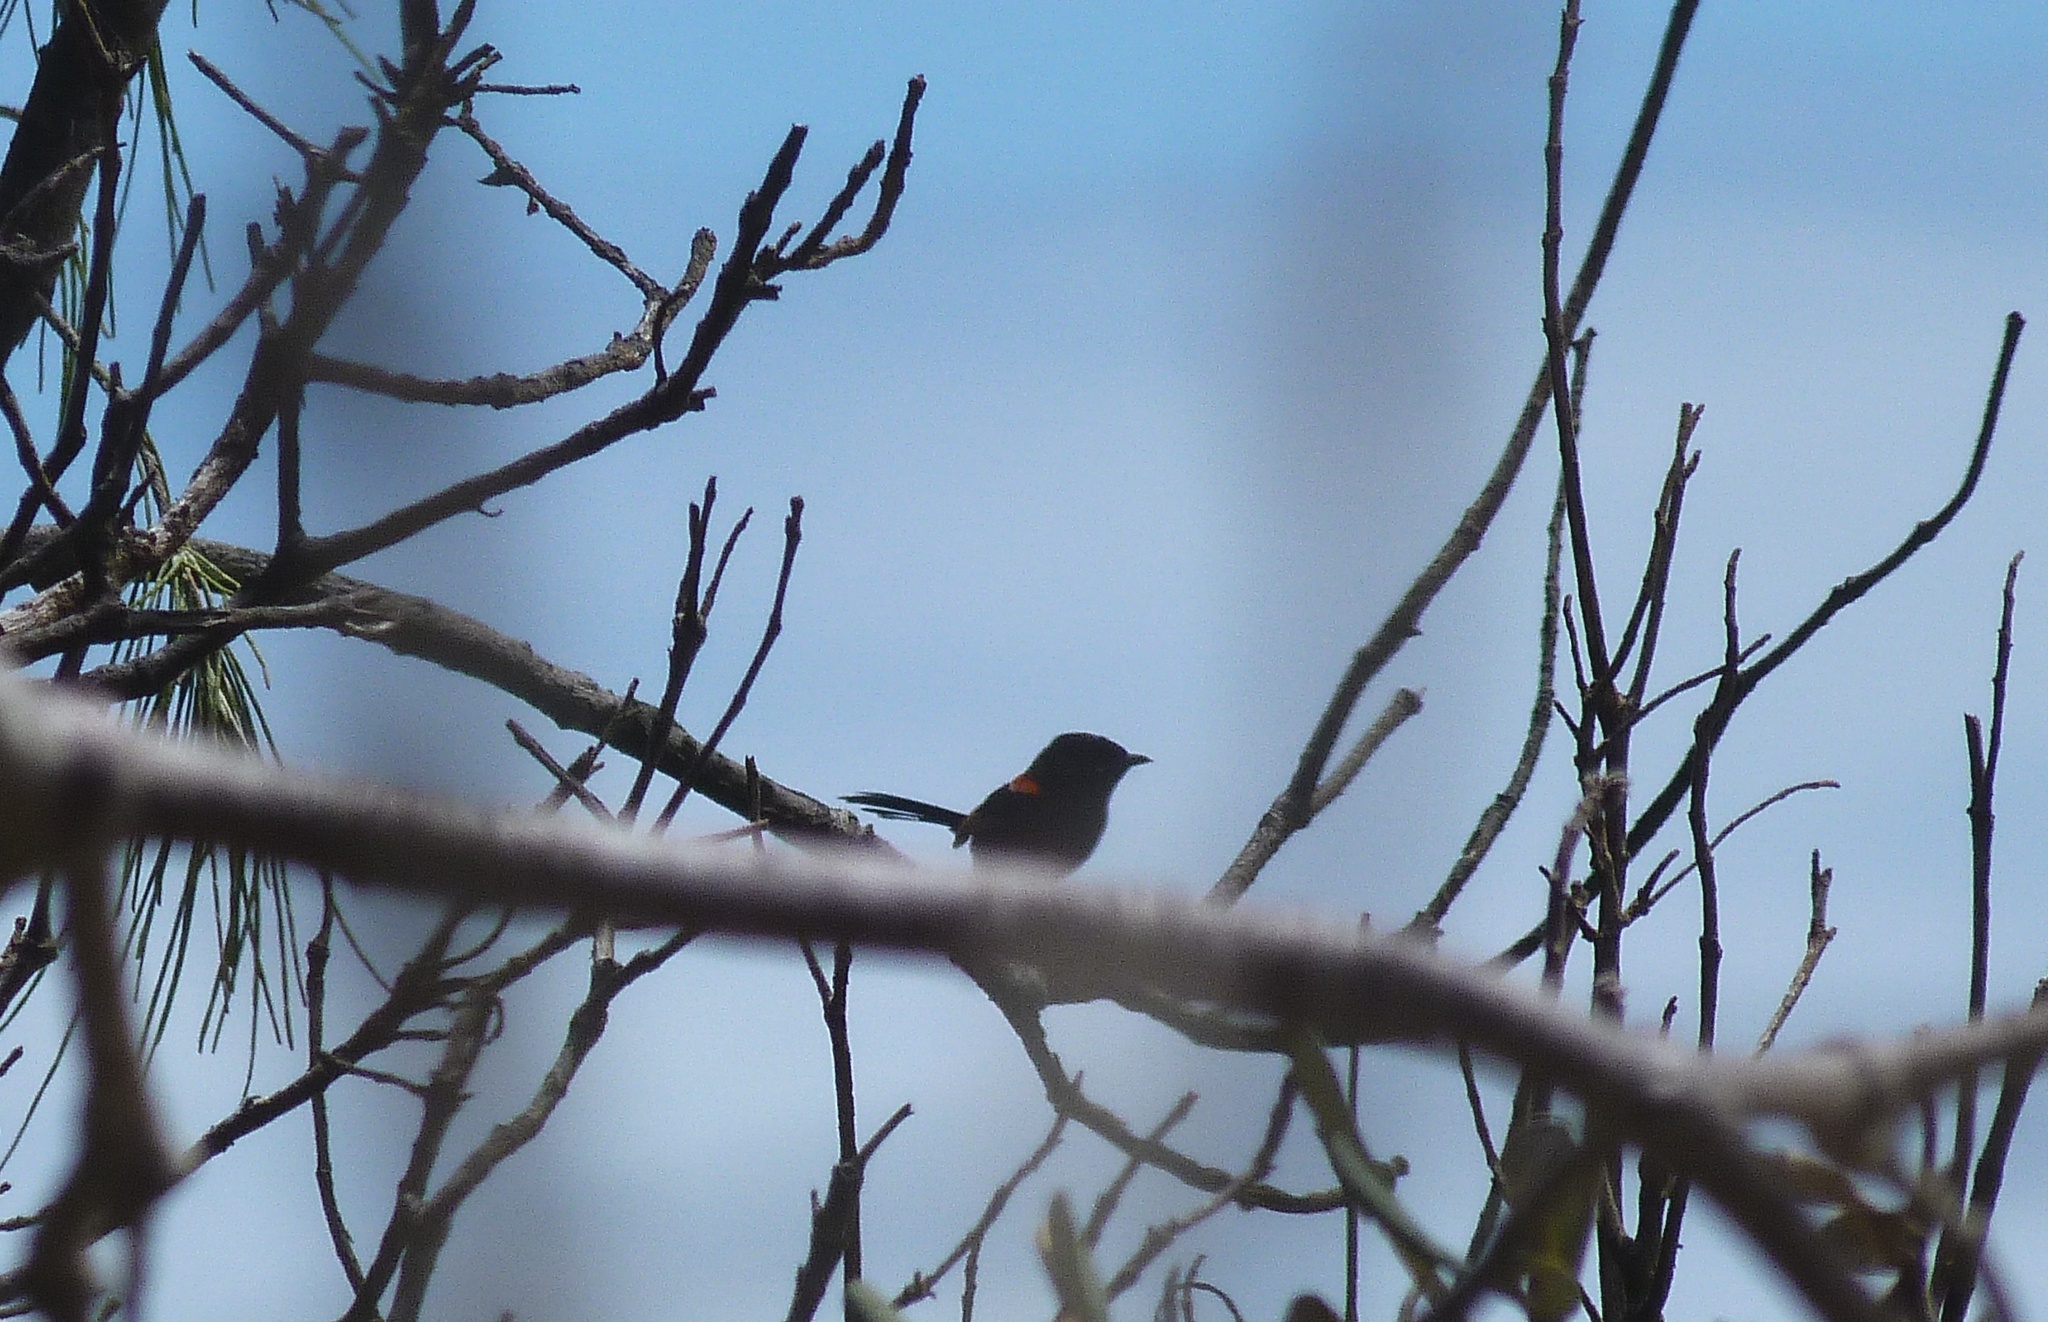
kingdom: Animalia
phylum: Chordata
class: Aves
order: Passeriformes
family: Maluridae
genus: Malurus
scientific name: Malurus melanocephalus
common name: Red-backed fairywren
